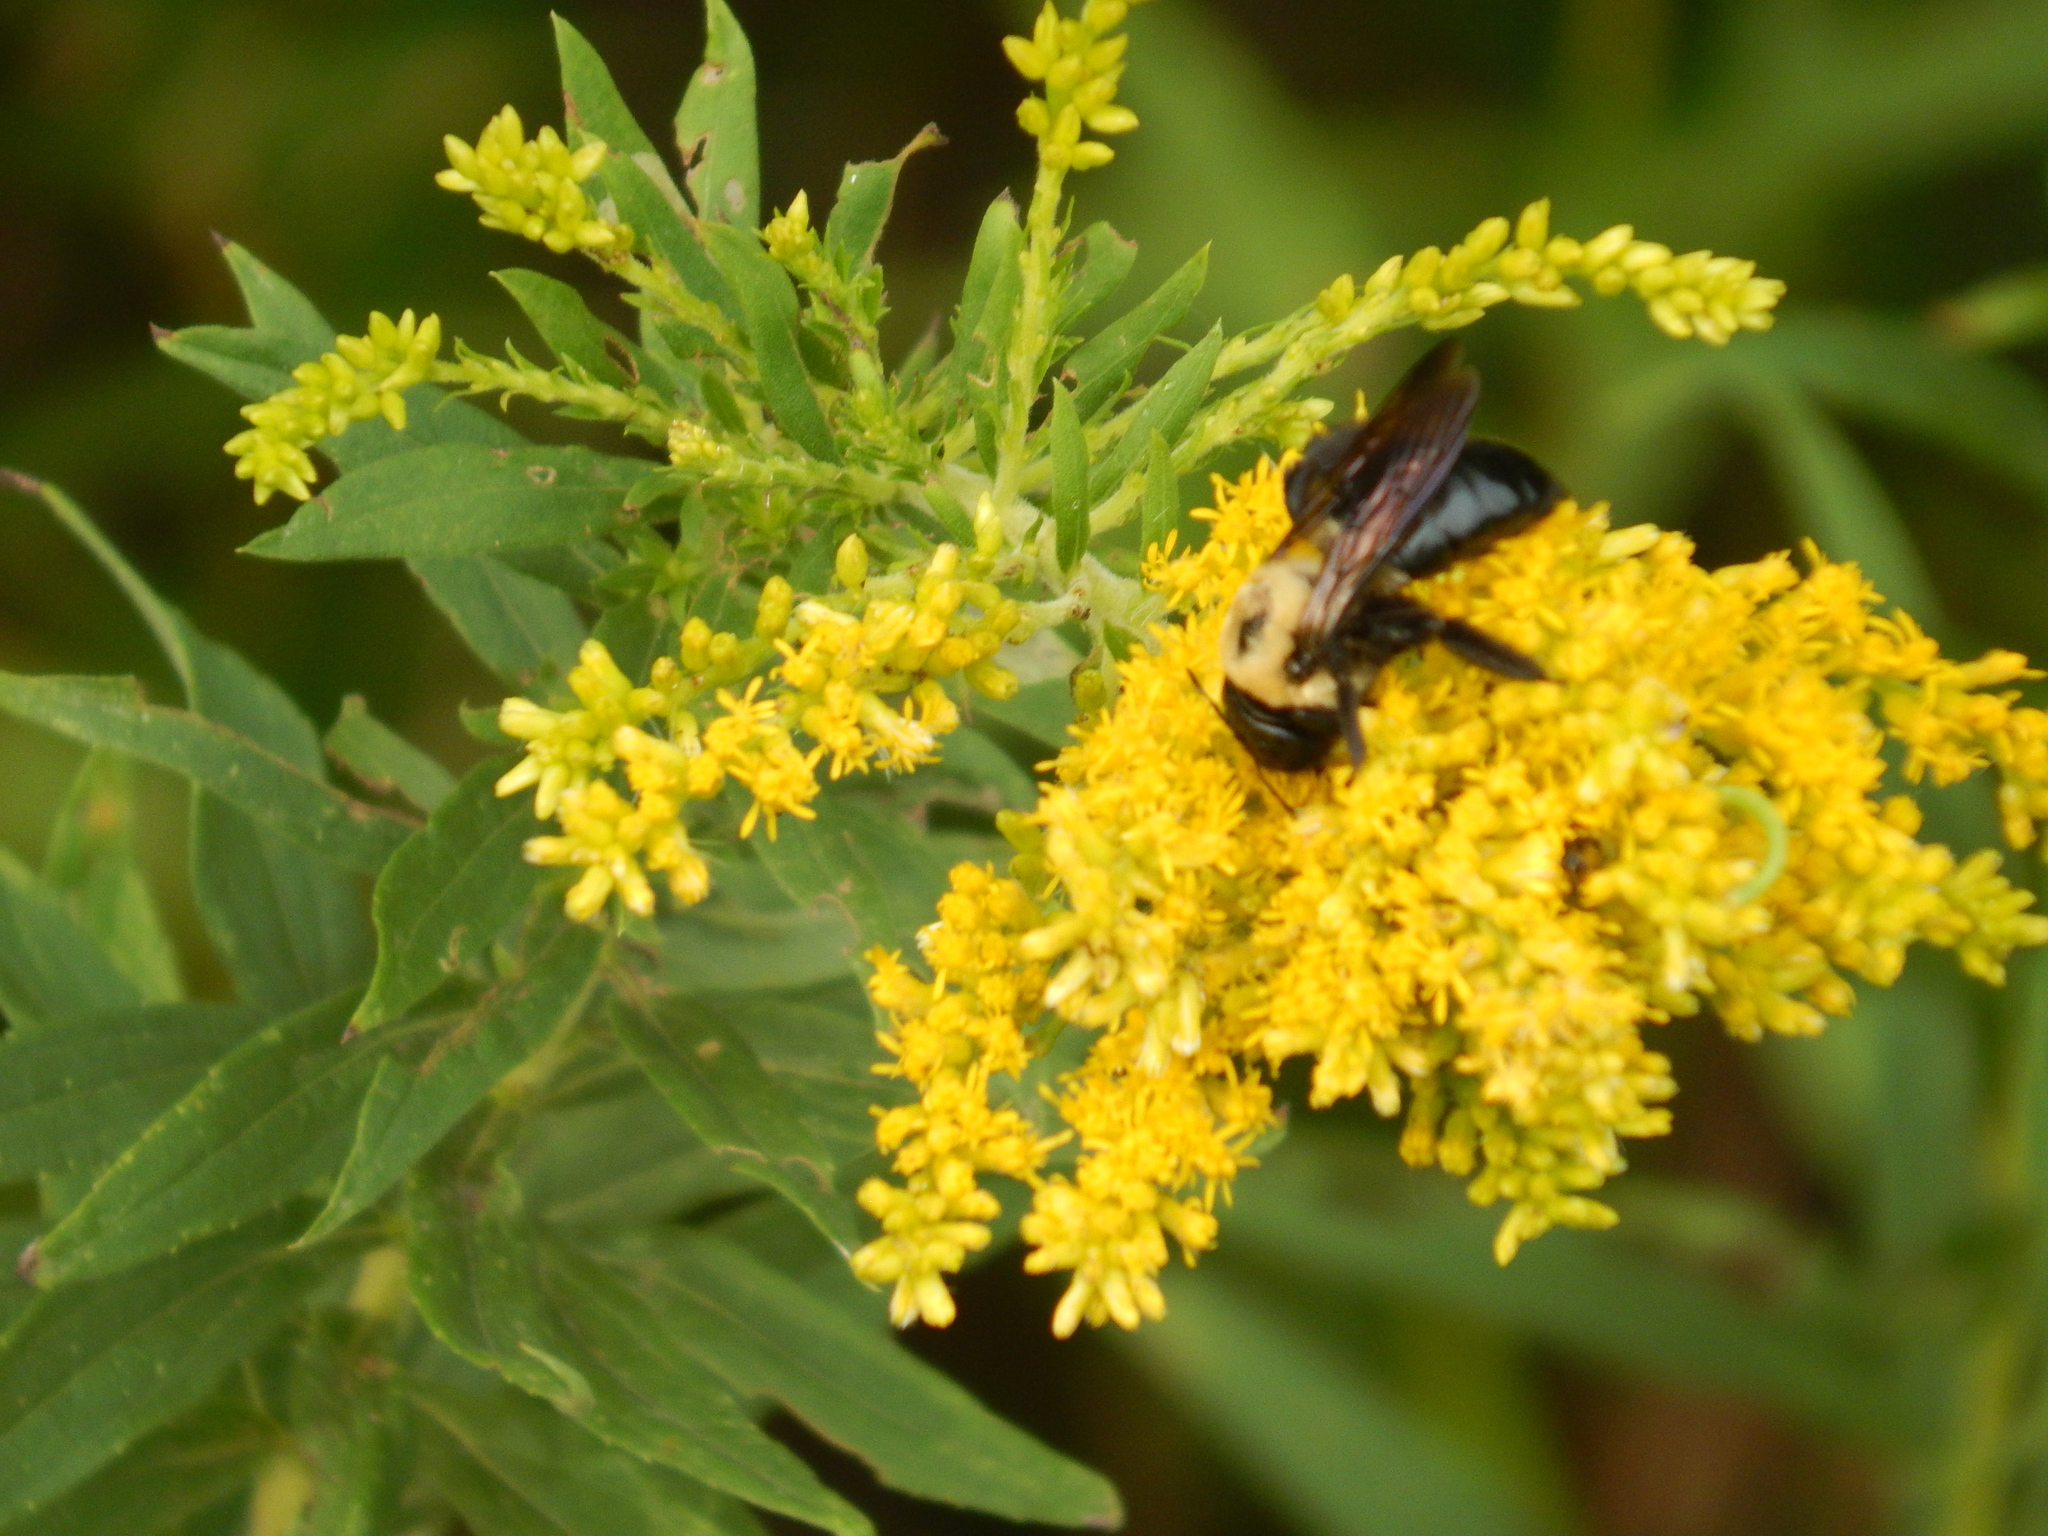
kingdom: Animalia
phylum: Arthropoda
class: Insecta
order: Hymenoptera
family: Apidae
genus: Xylocopa
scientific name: Xylocopa virginica
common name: Carpenter bee
